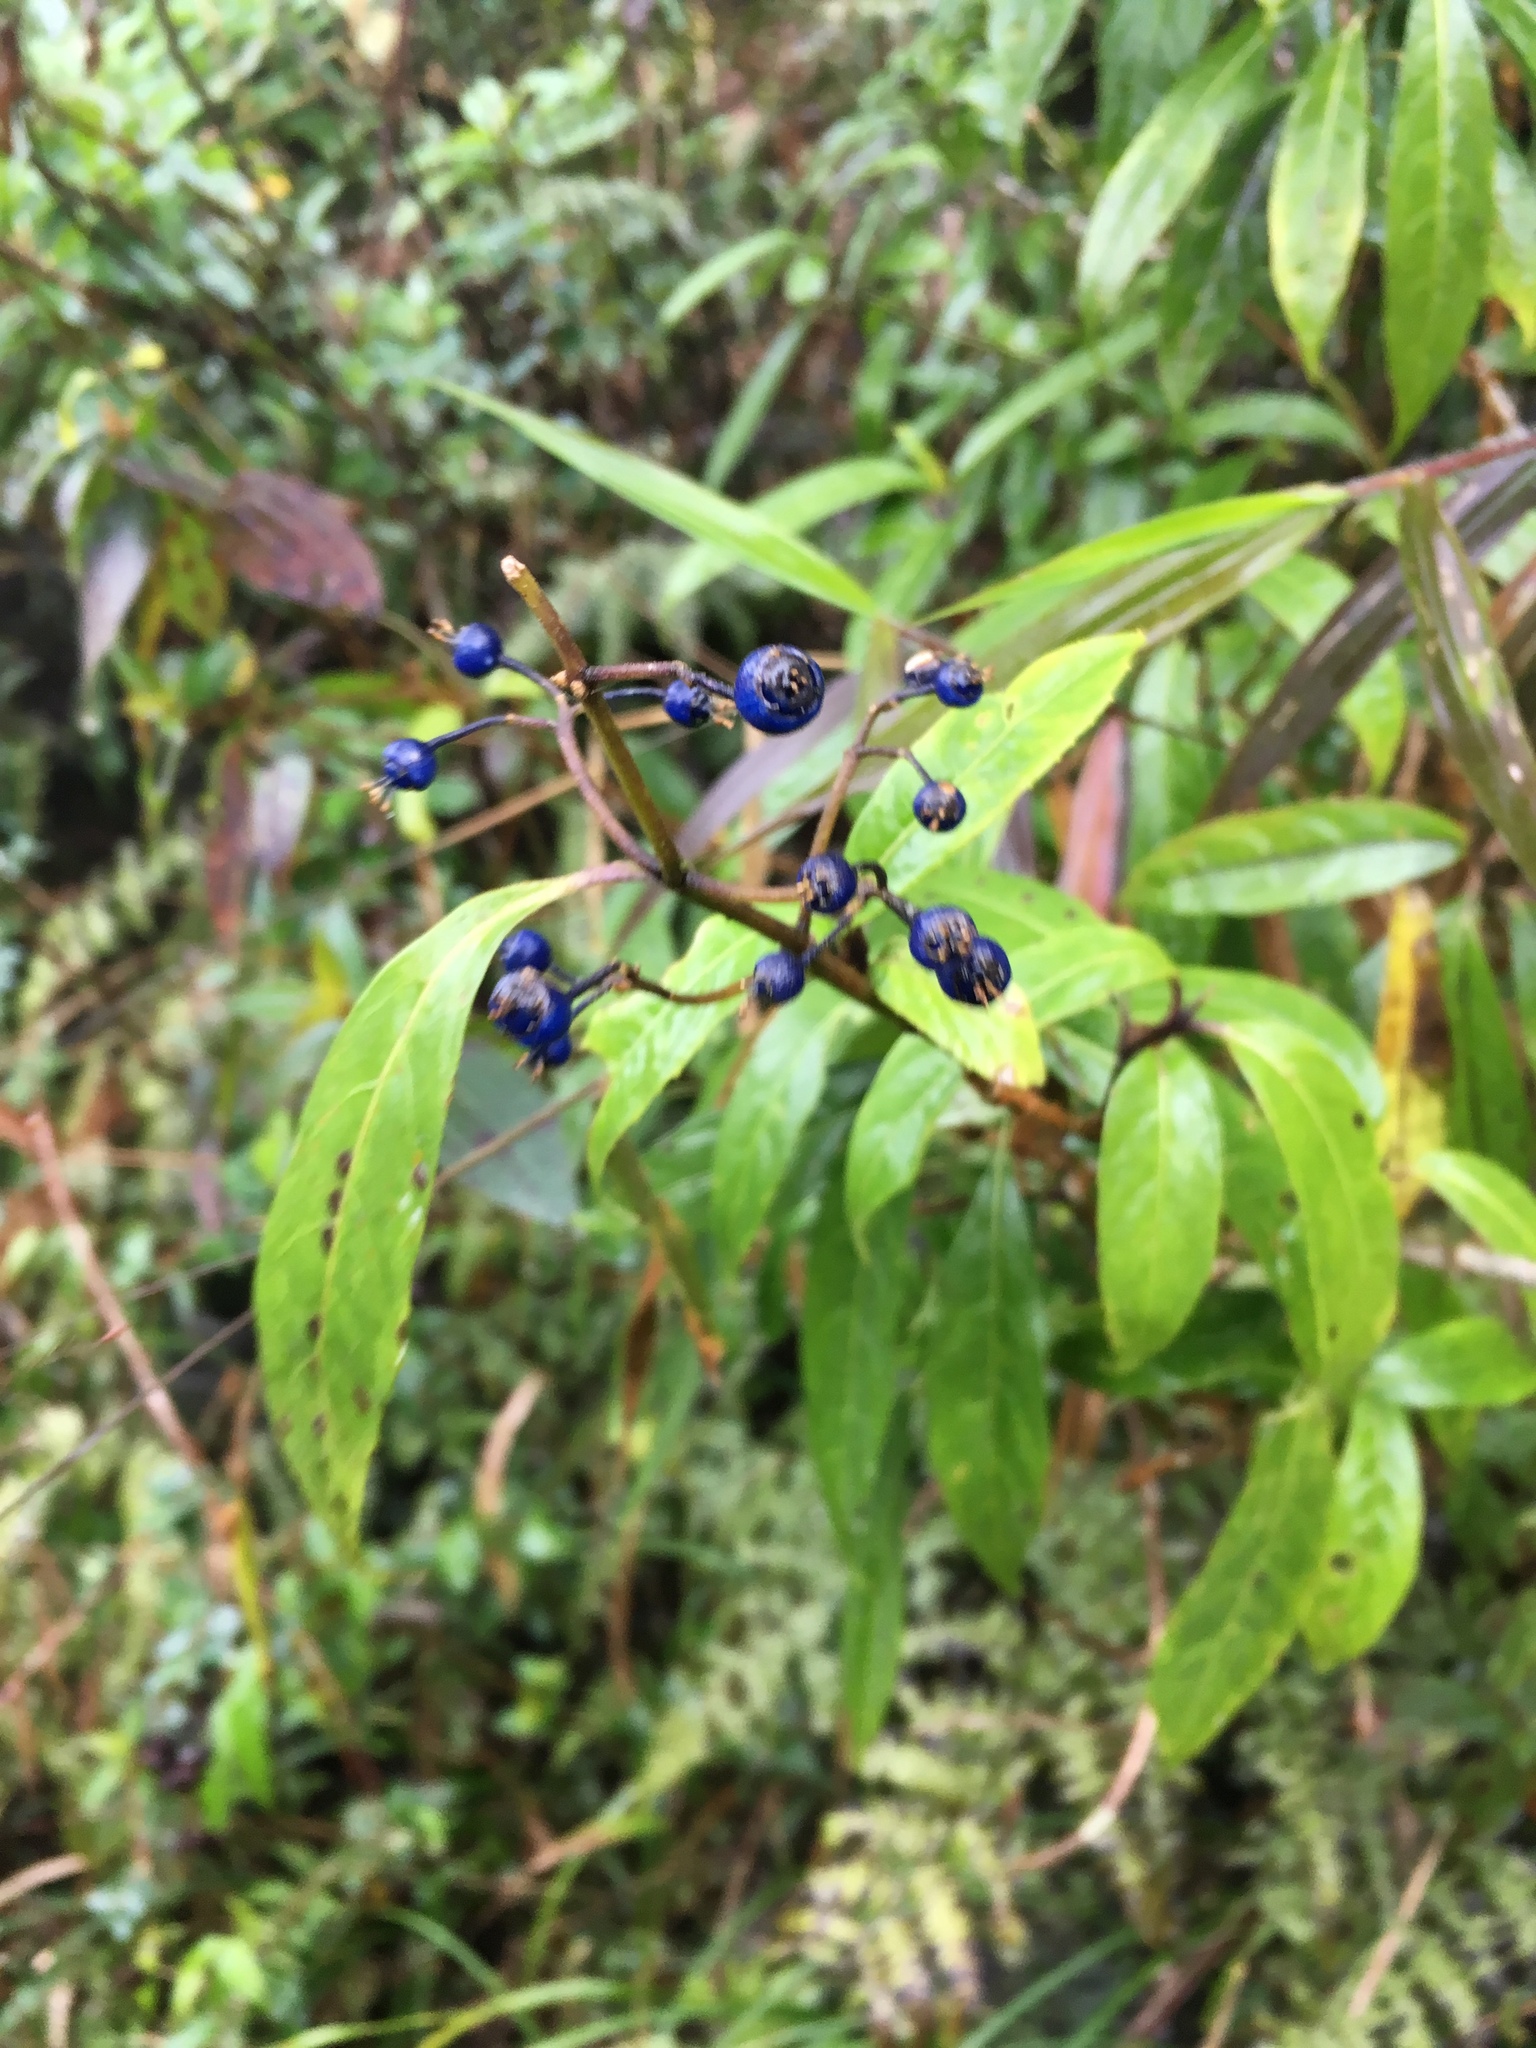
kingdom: Plantae
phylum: Tracheophyta
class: Magnoliopsida
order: Cornales
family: Hydrangeaceae
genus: Hydrangea
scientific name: Hydrangea febrifuga
